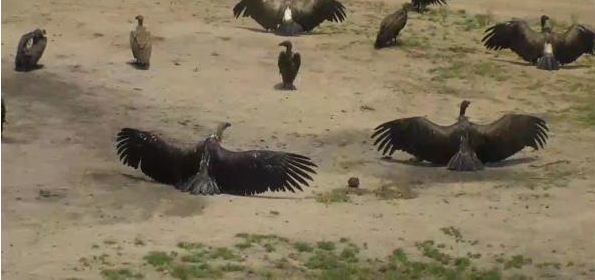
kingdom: Animalia
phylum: Chordata
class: Aves
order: Accipitriformes
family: Accipitridae
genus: Gyps
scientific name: Gyps africanus
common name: White-backed vulture
